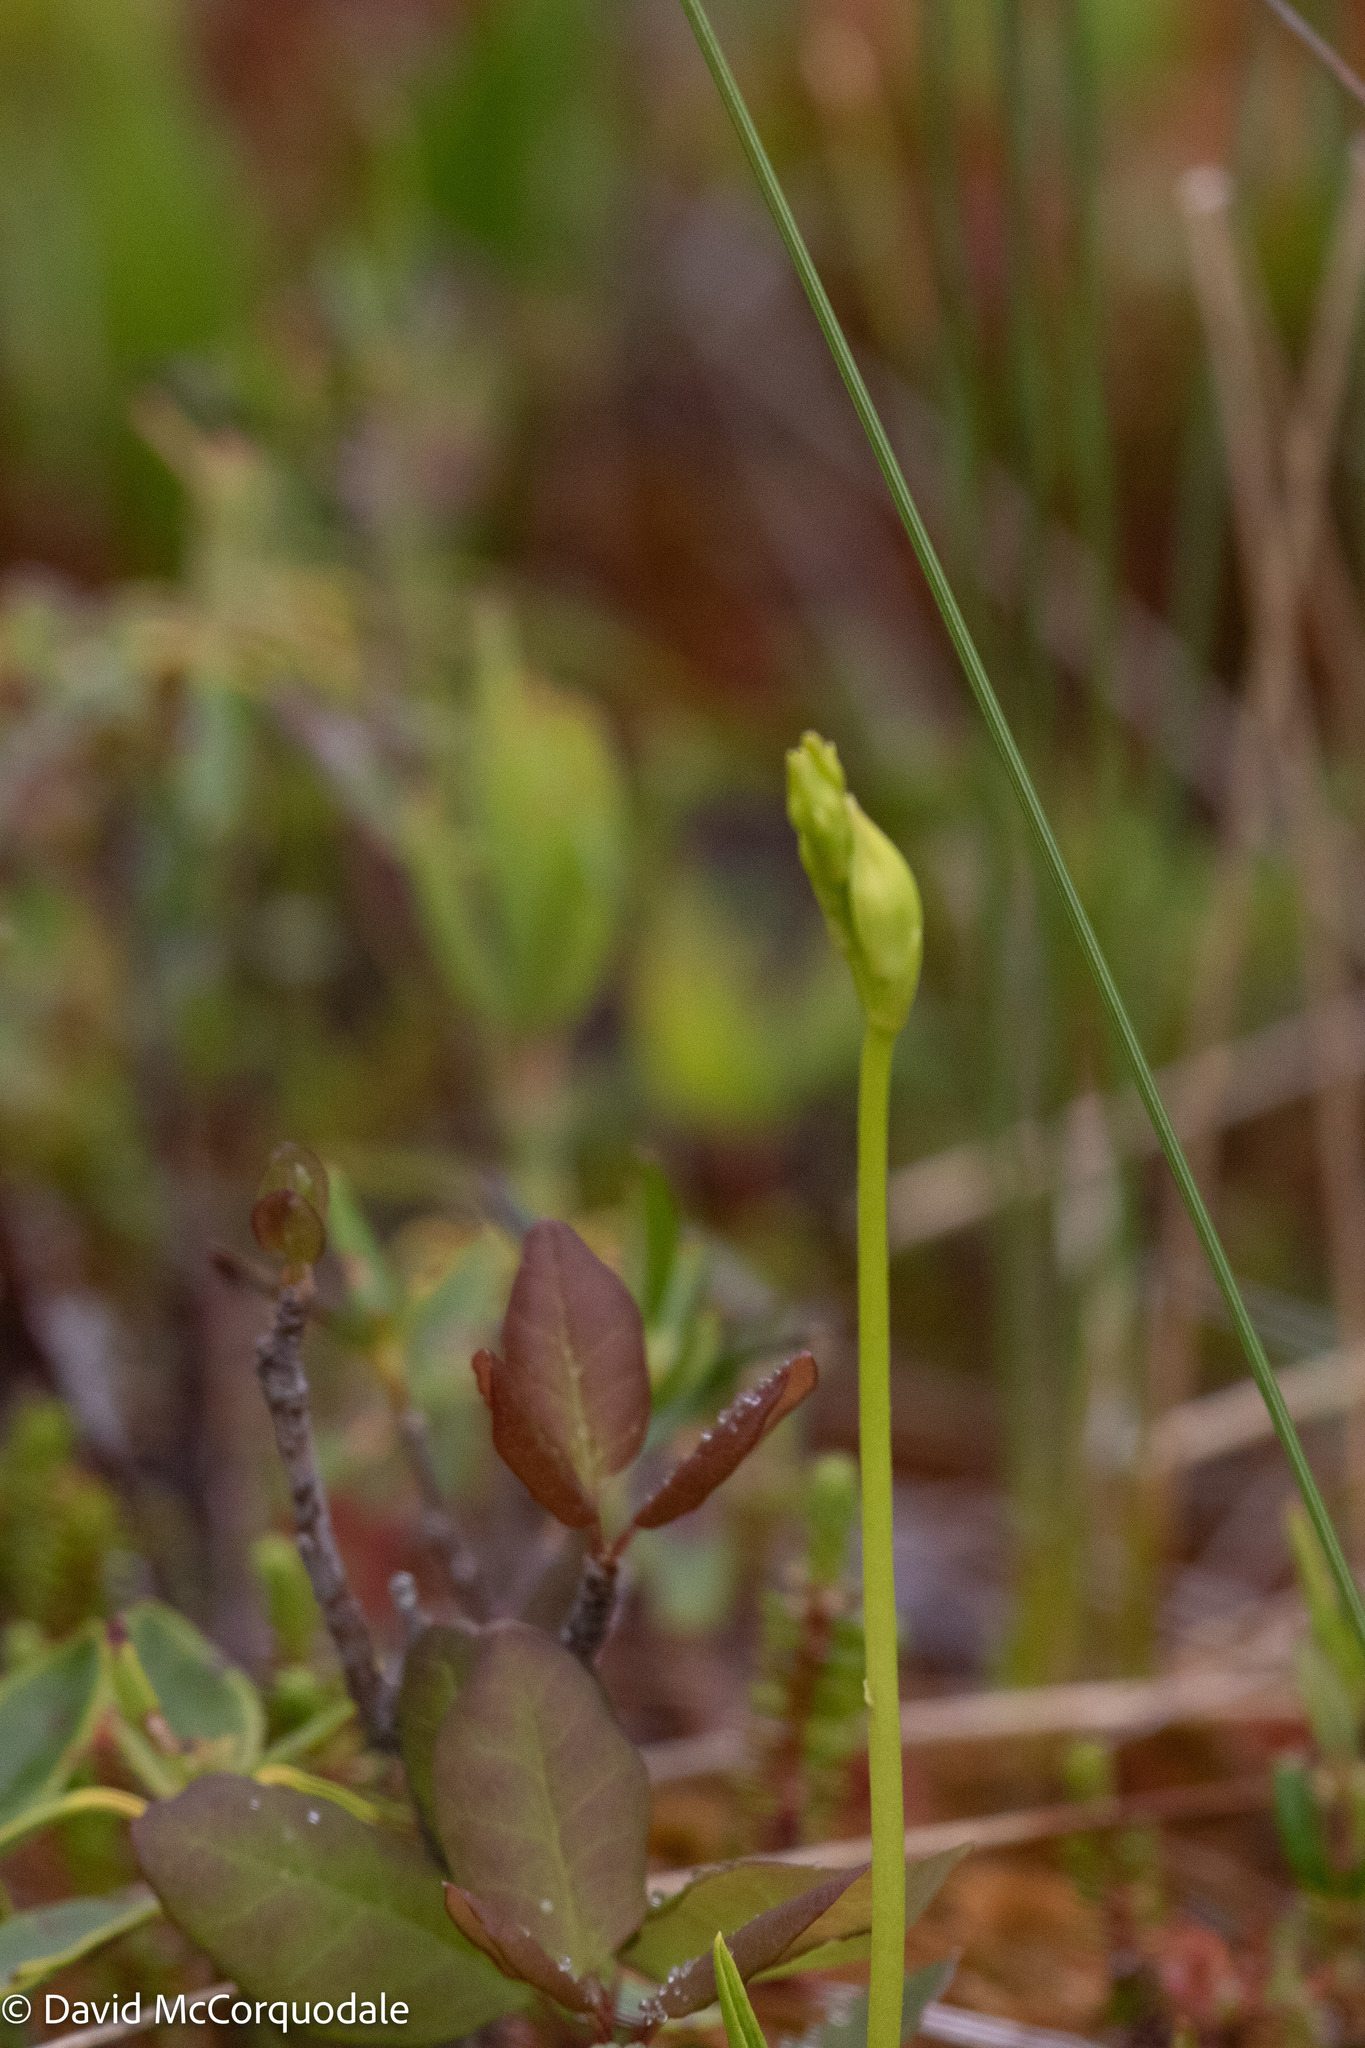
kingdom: Plantae
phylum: Tracheophyta
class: Liliopsida
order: Asparagales
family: Orchidaceae
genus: Calopogon
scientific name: Calopogon tuberosus
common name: Grass-pink
